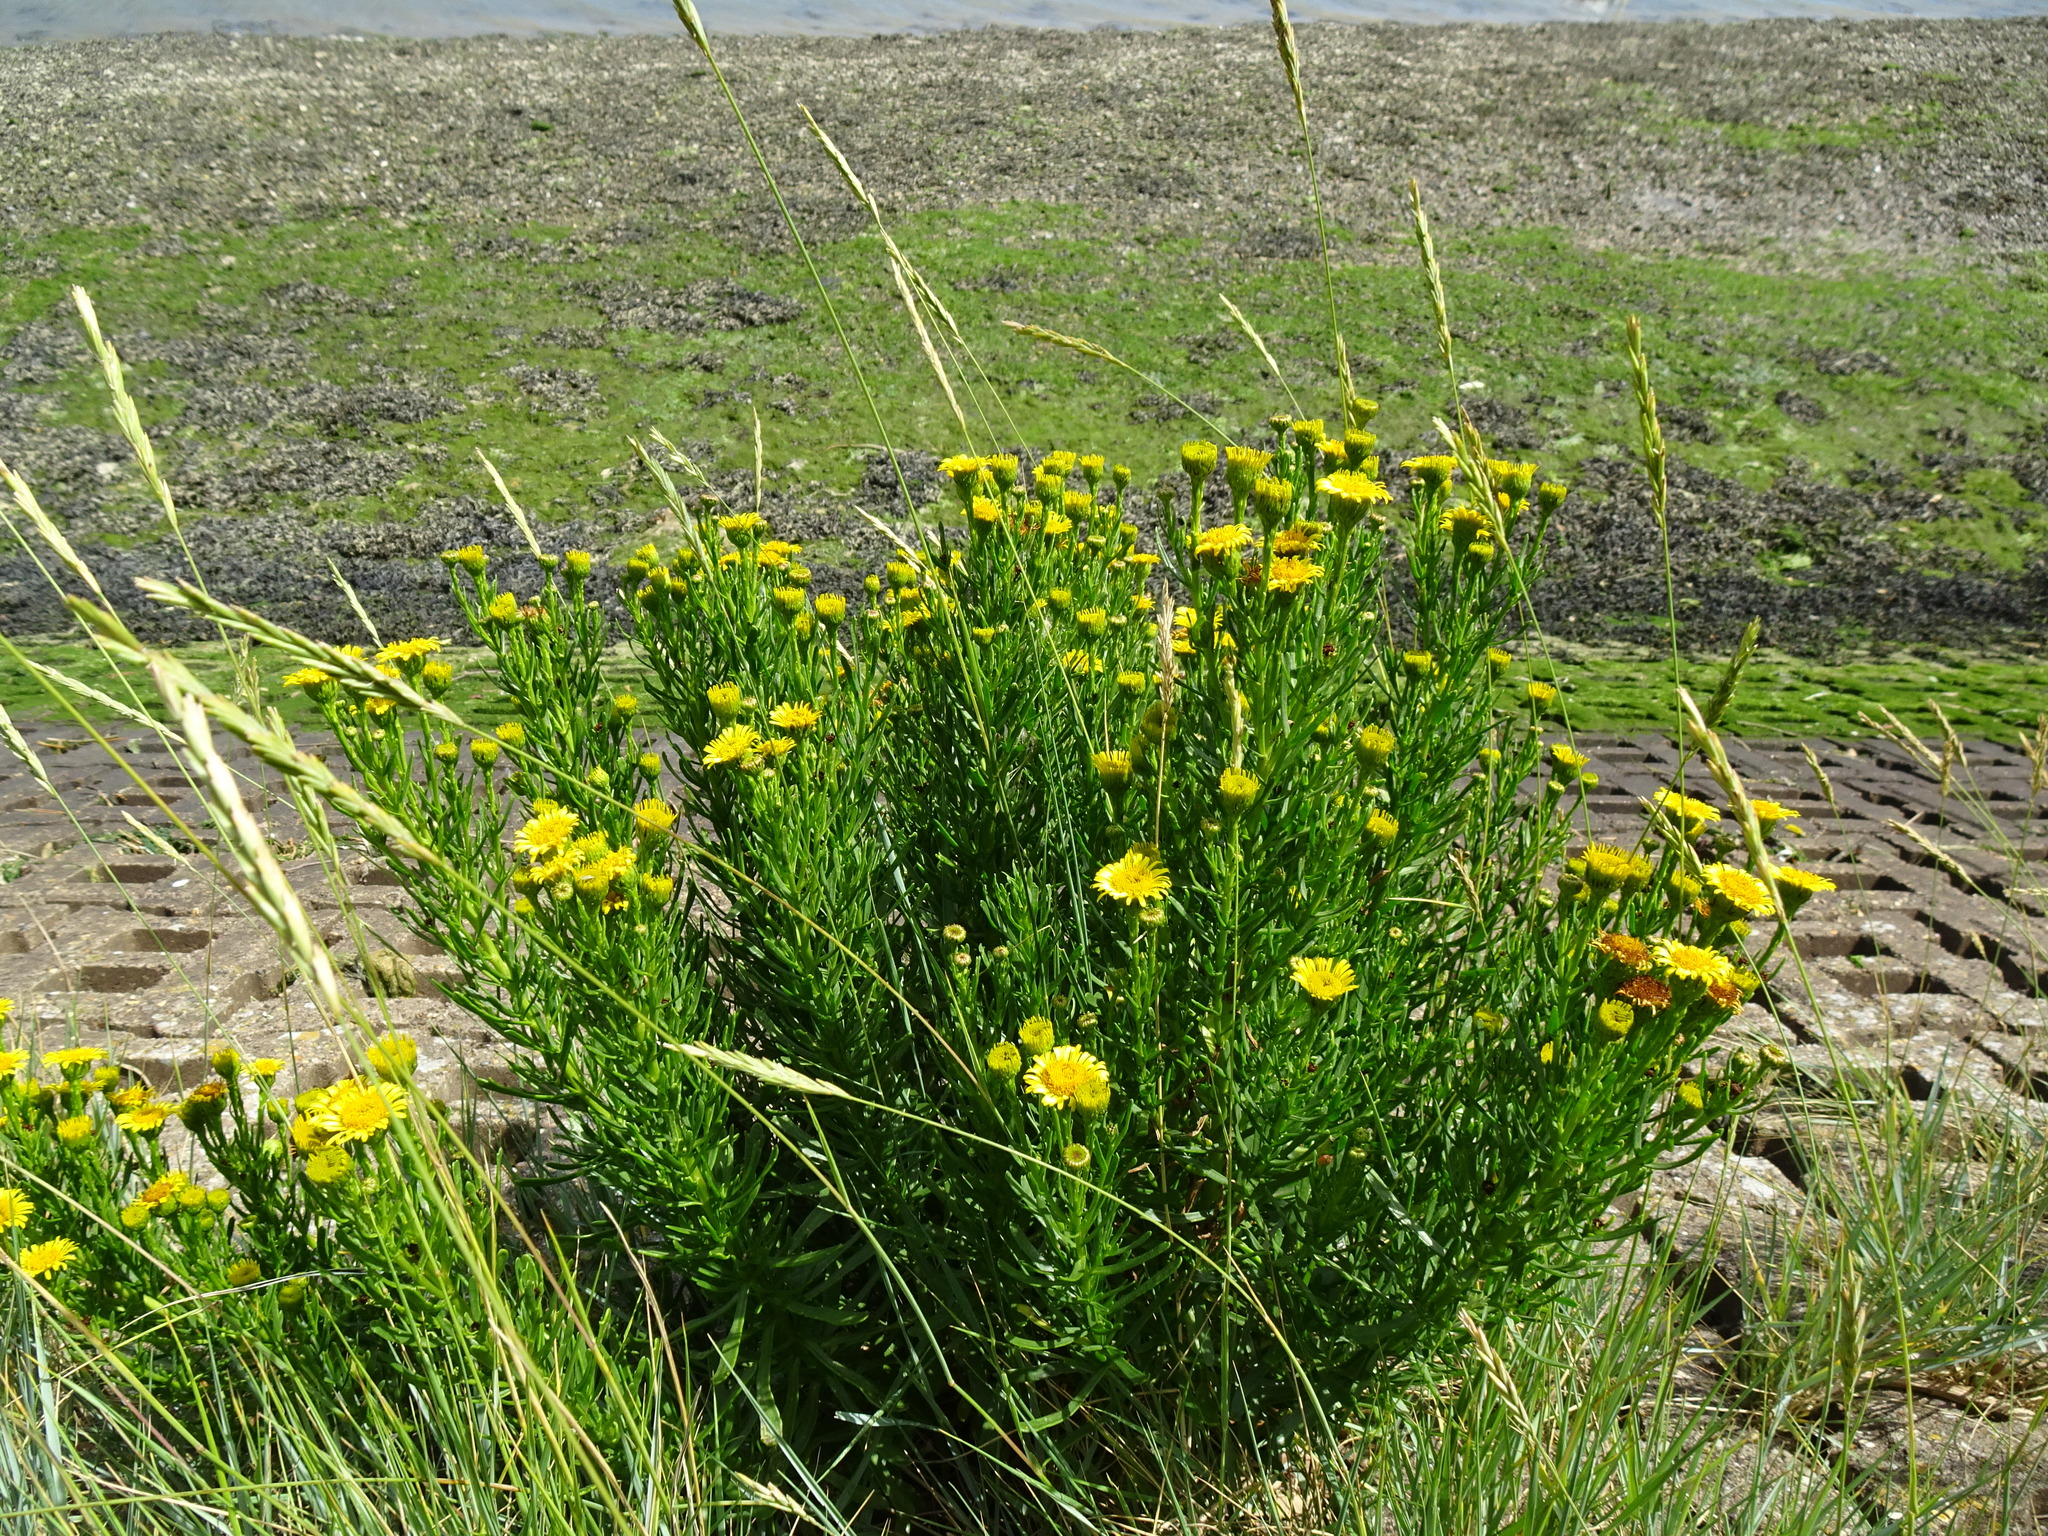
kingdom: Plantae
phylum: Tracheophyta
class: Magnoliopsida
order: Asterales
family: Asteraceae
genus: Limbarda
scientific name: Limbarda crithmoides
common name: Golden samphire
